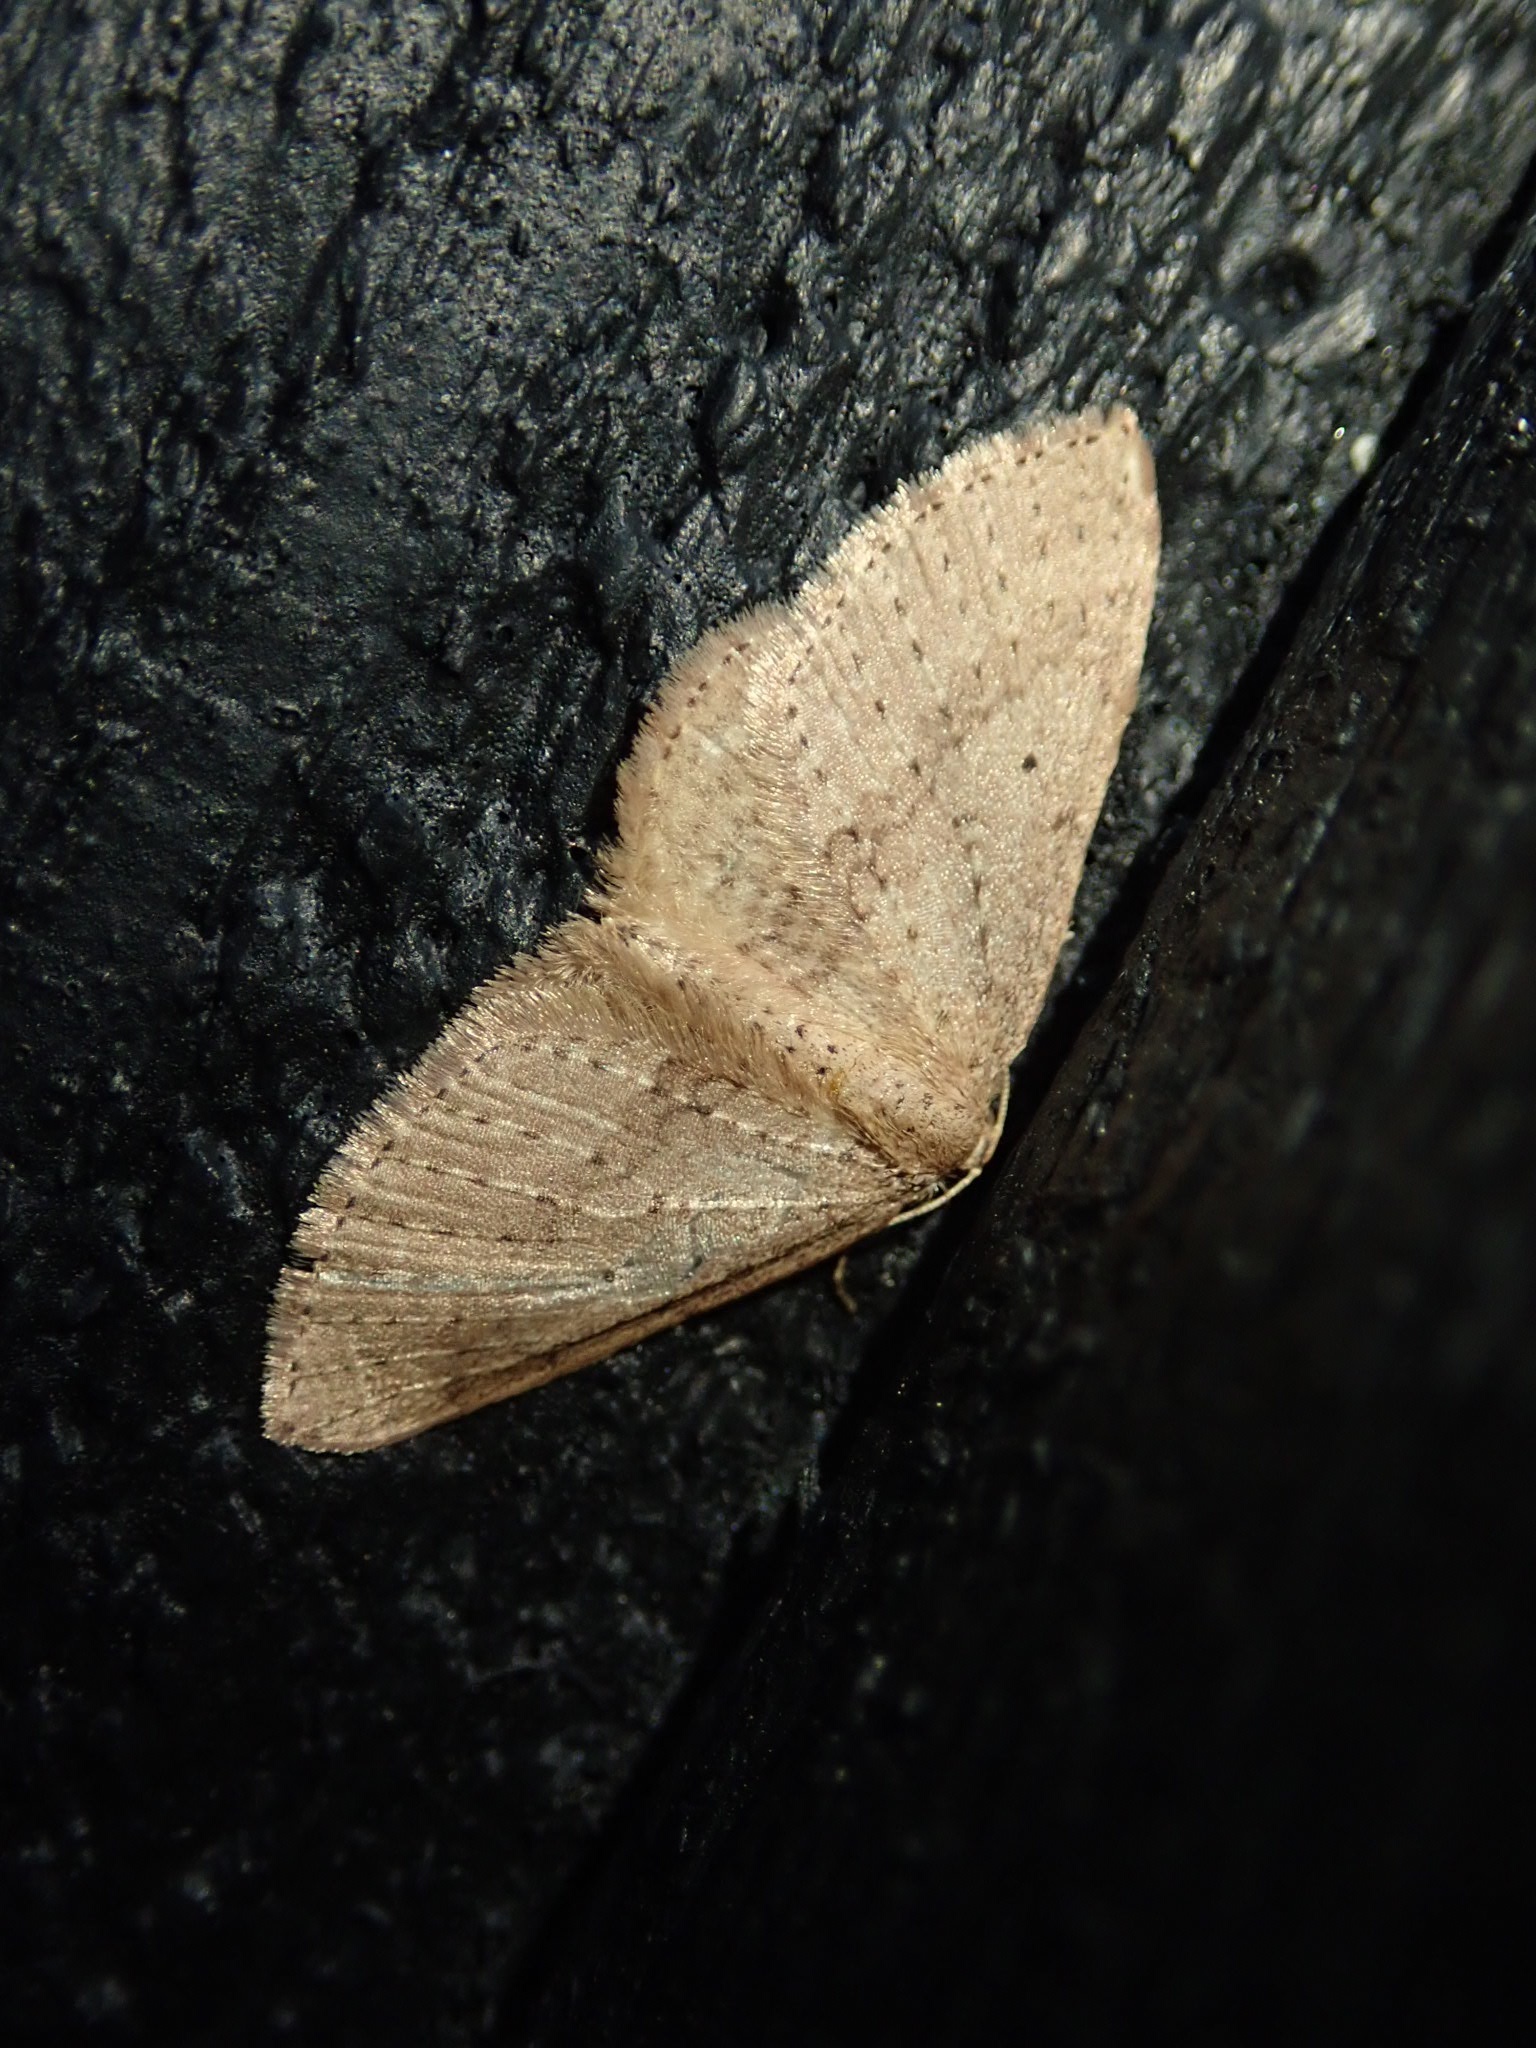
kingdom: Animalia
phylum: Arthropoda
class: Insecta
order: Lepidoptera
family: Geometridae
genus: Poecilasthena
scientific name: Poecilasthena schistaria
